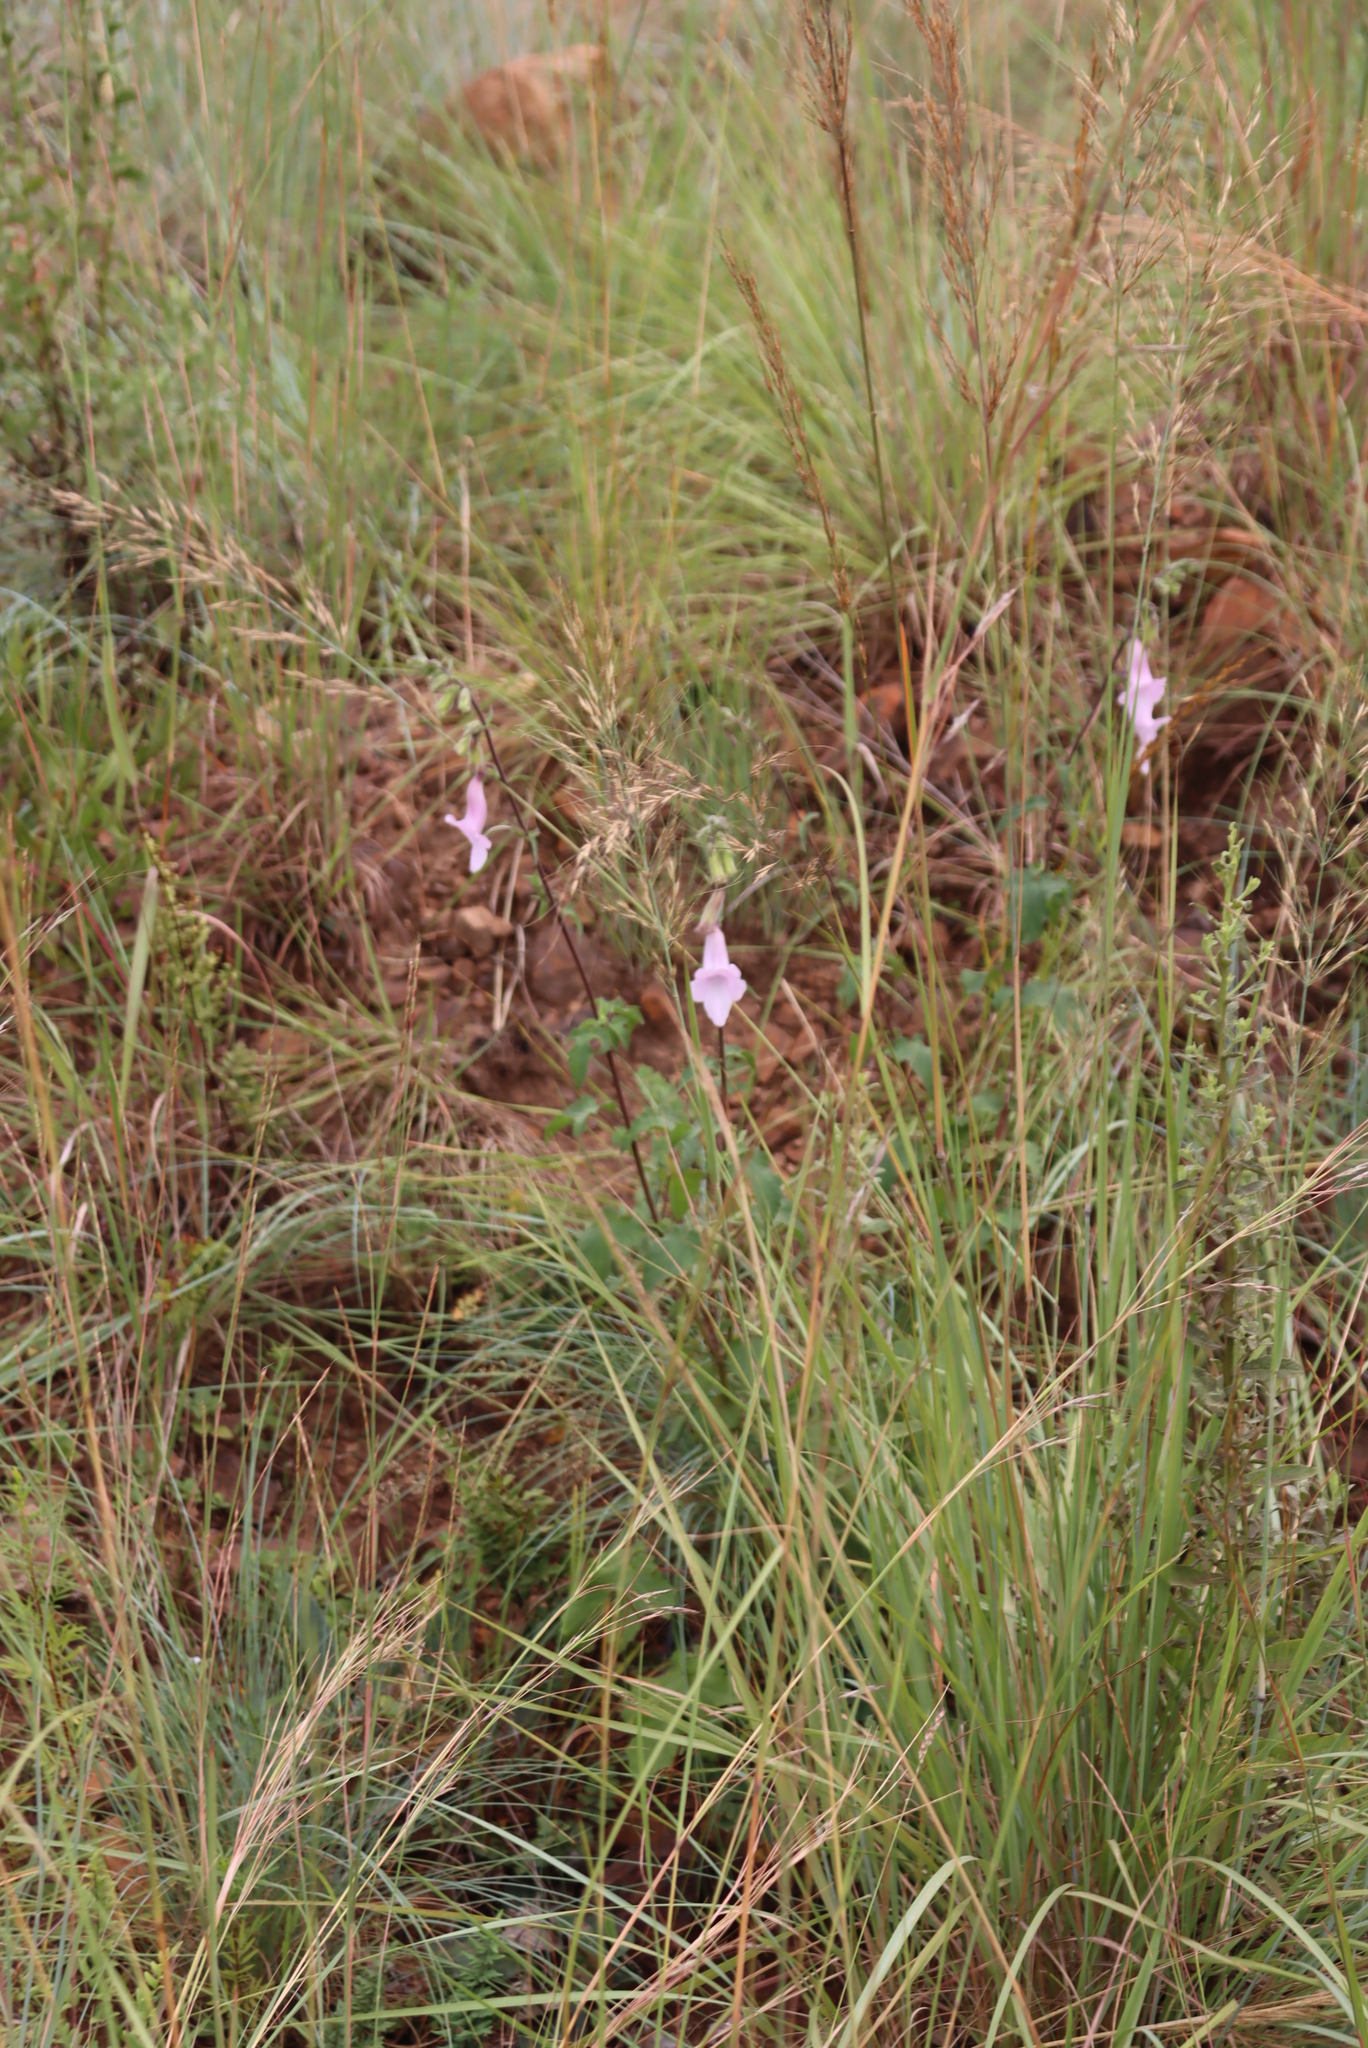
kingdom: Plantae
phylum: Tracheophyta
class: Magnoliopsida
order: Lamiales
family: Pedaliaceae
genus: Sesamum
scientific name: Sesamum trilobum
